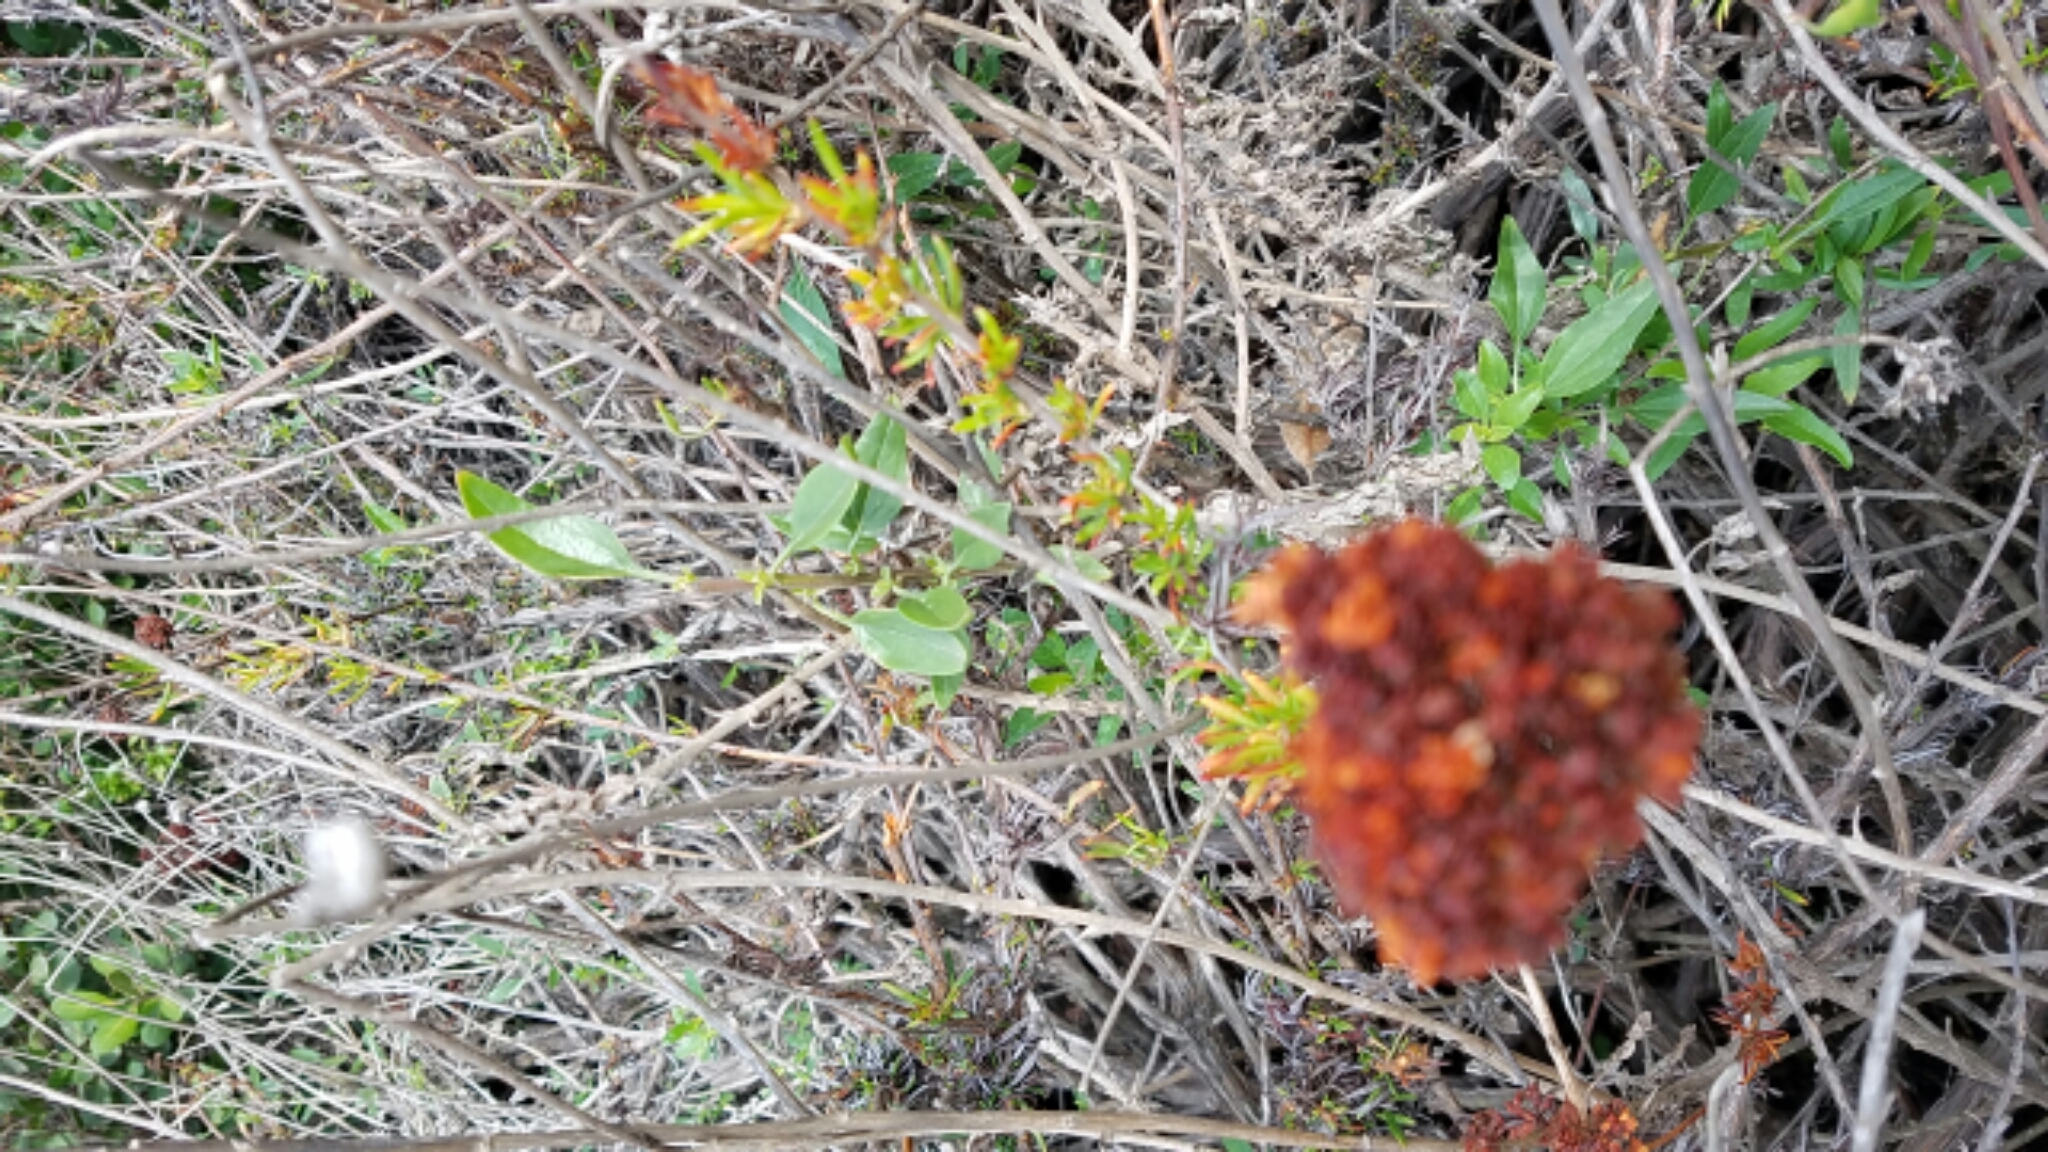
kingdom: Plantae
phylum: Tracheophyta
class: Magnoliopsida
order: Caryophyllales
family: Polygonaceae
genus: Eriogonum
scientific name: Eriogonum fasciculatum
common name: California wild buckwheat
